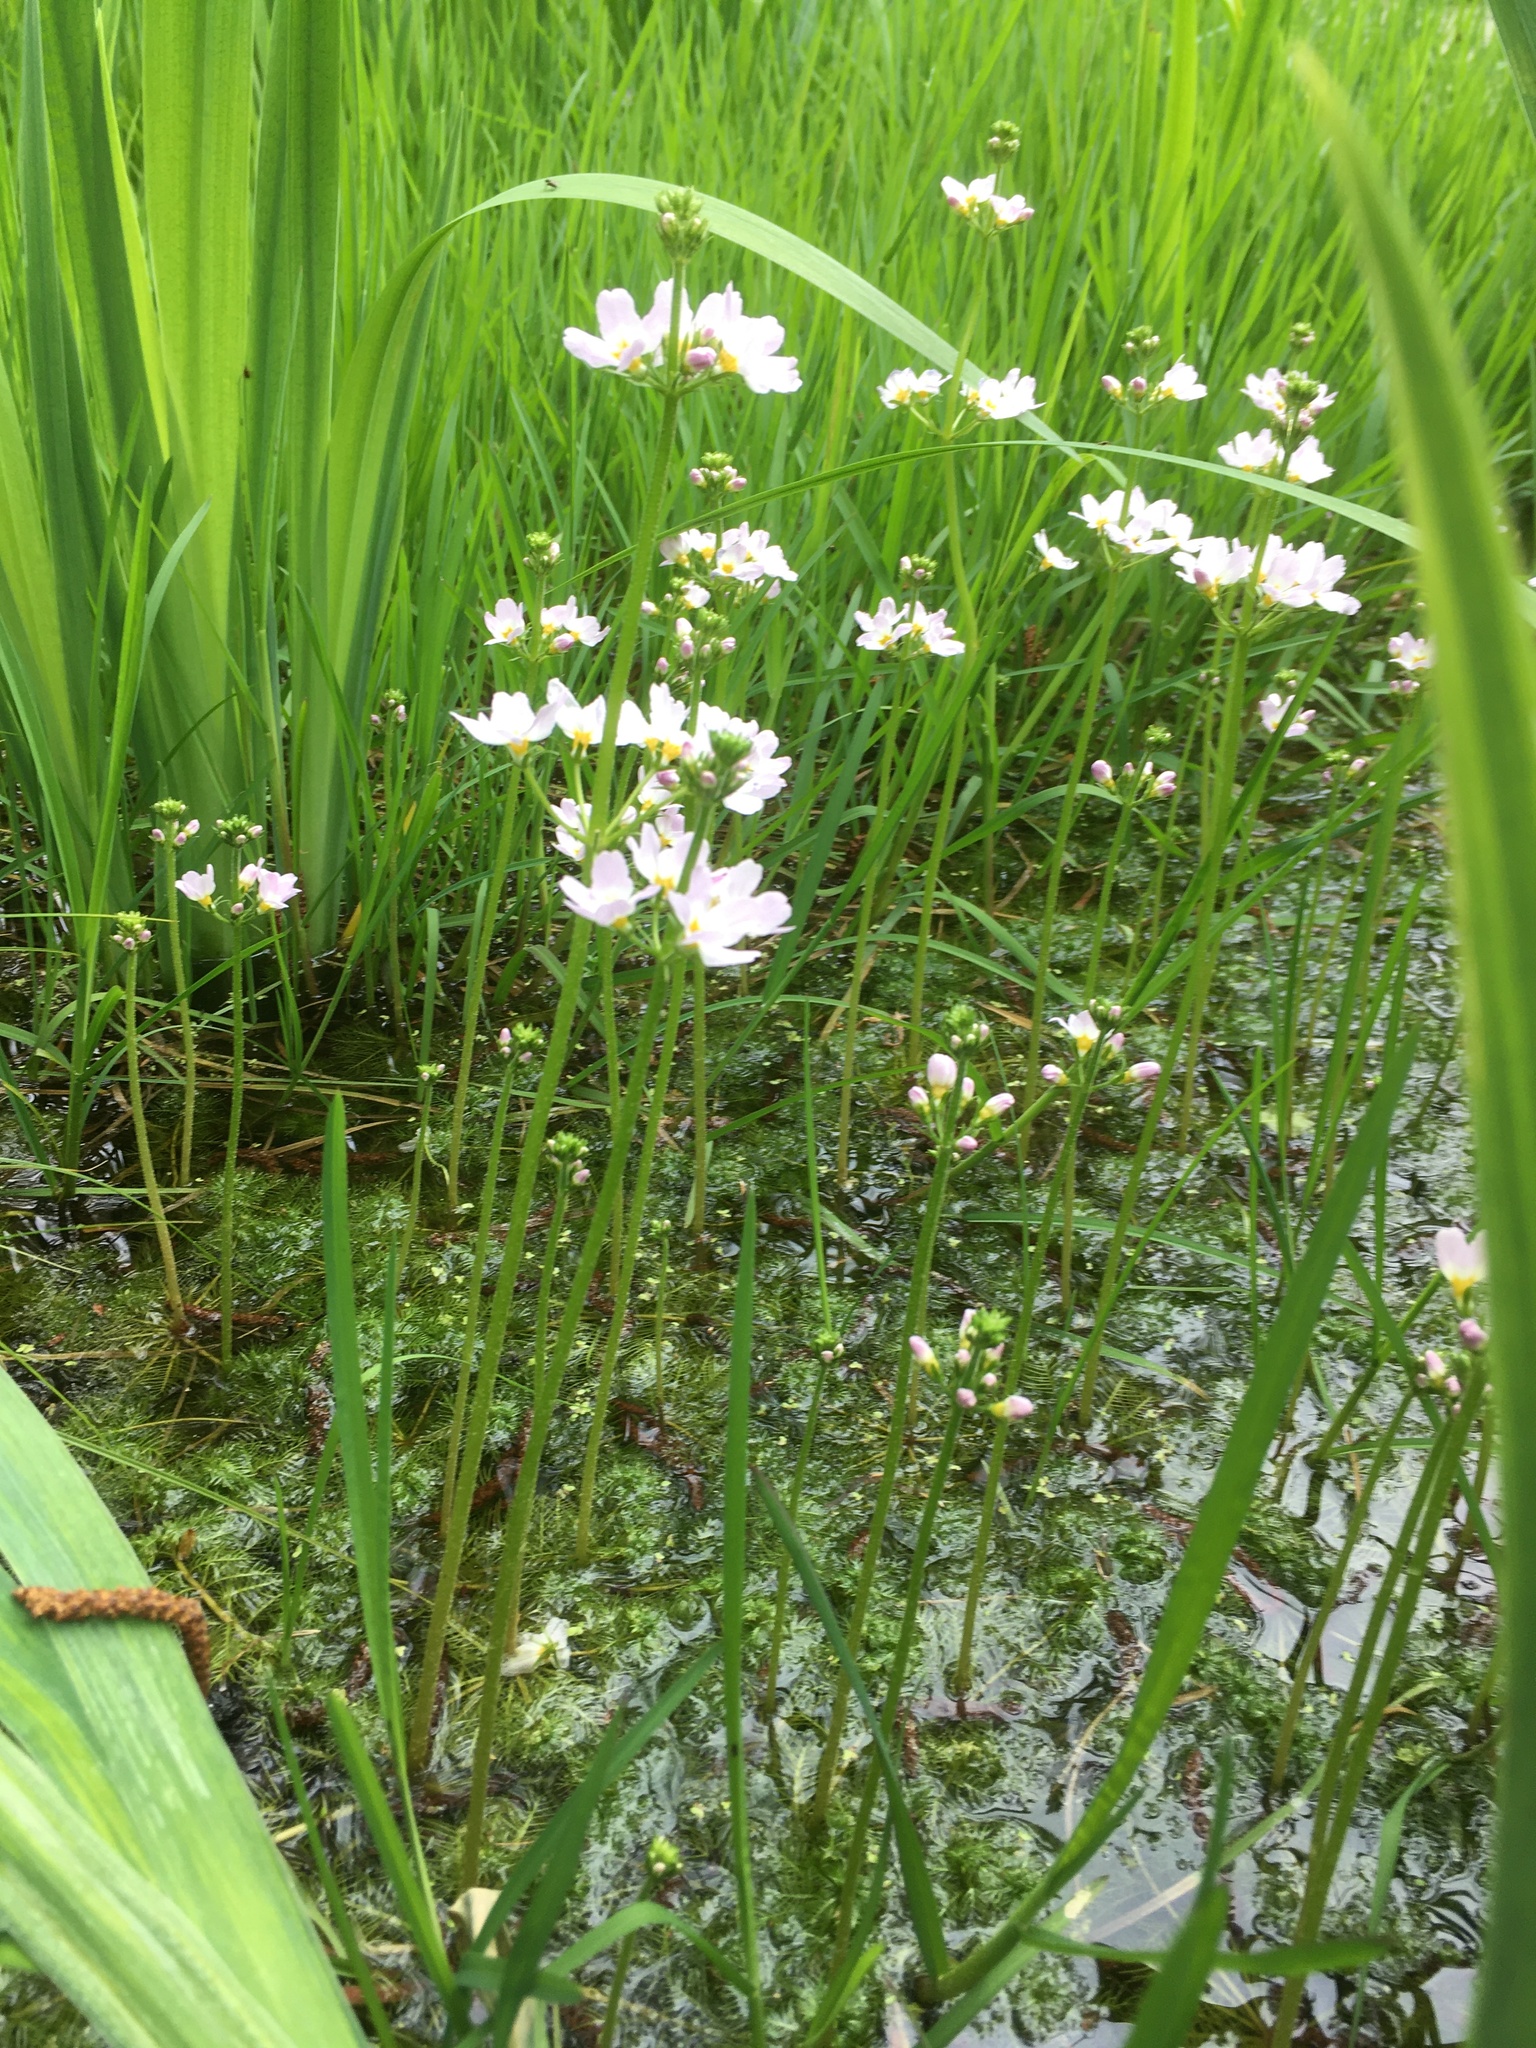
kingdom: Plantae
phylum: Tracheophyta
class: Magnoliopsida
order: Ericales
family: Primulaceae
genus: Hottonia
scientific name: Hottonia palustris
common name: Water-violet
